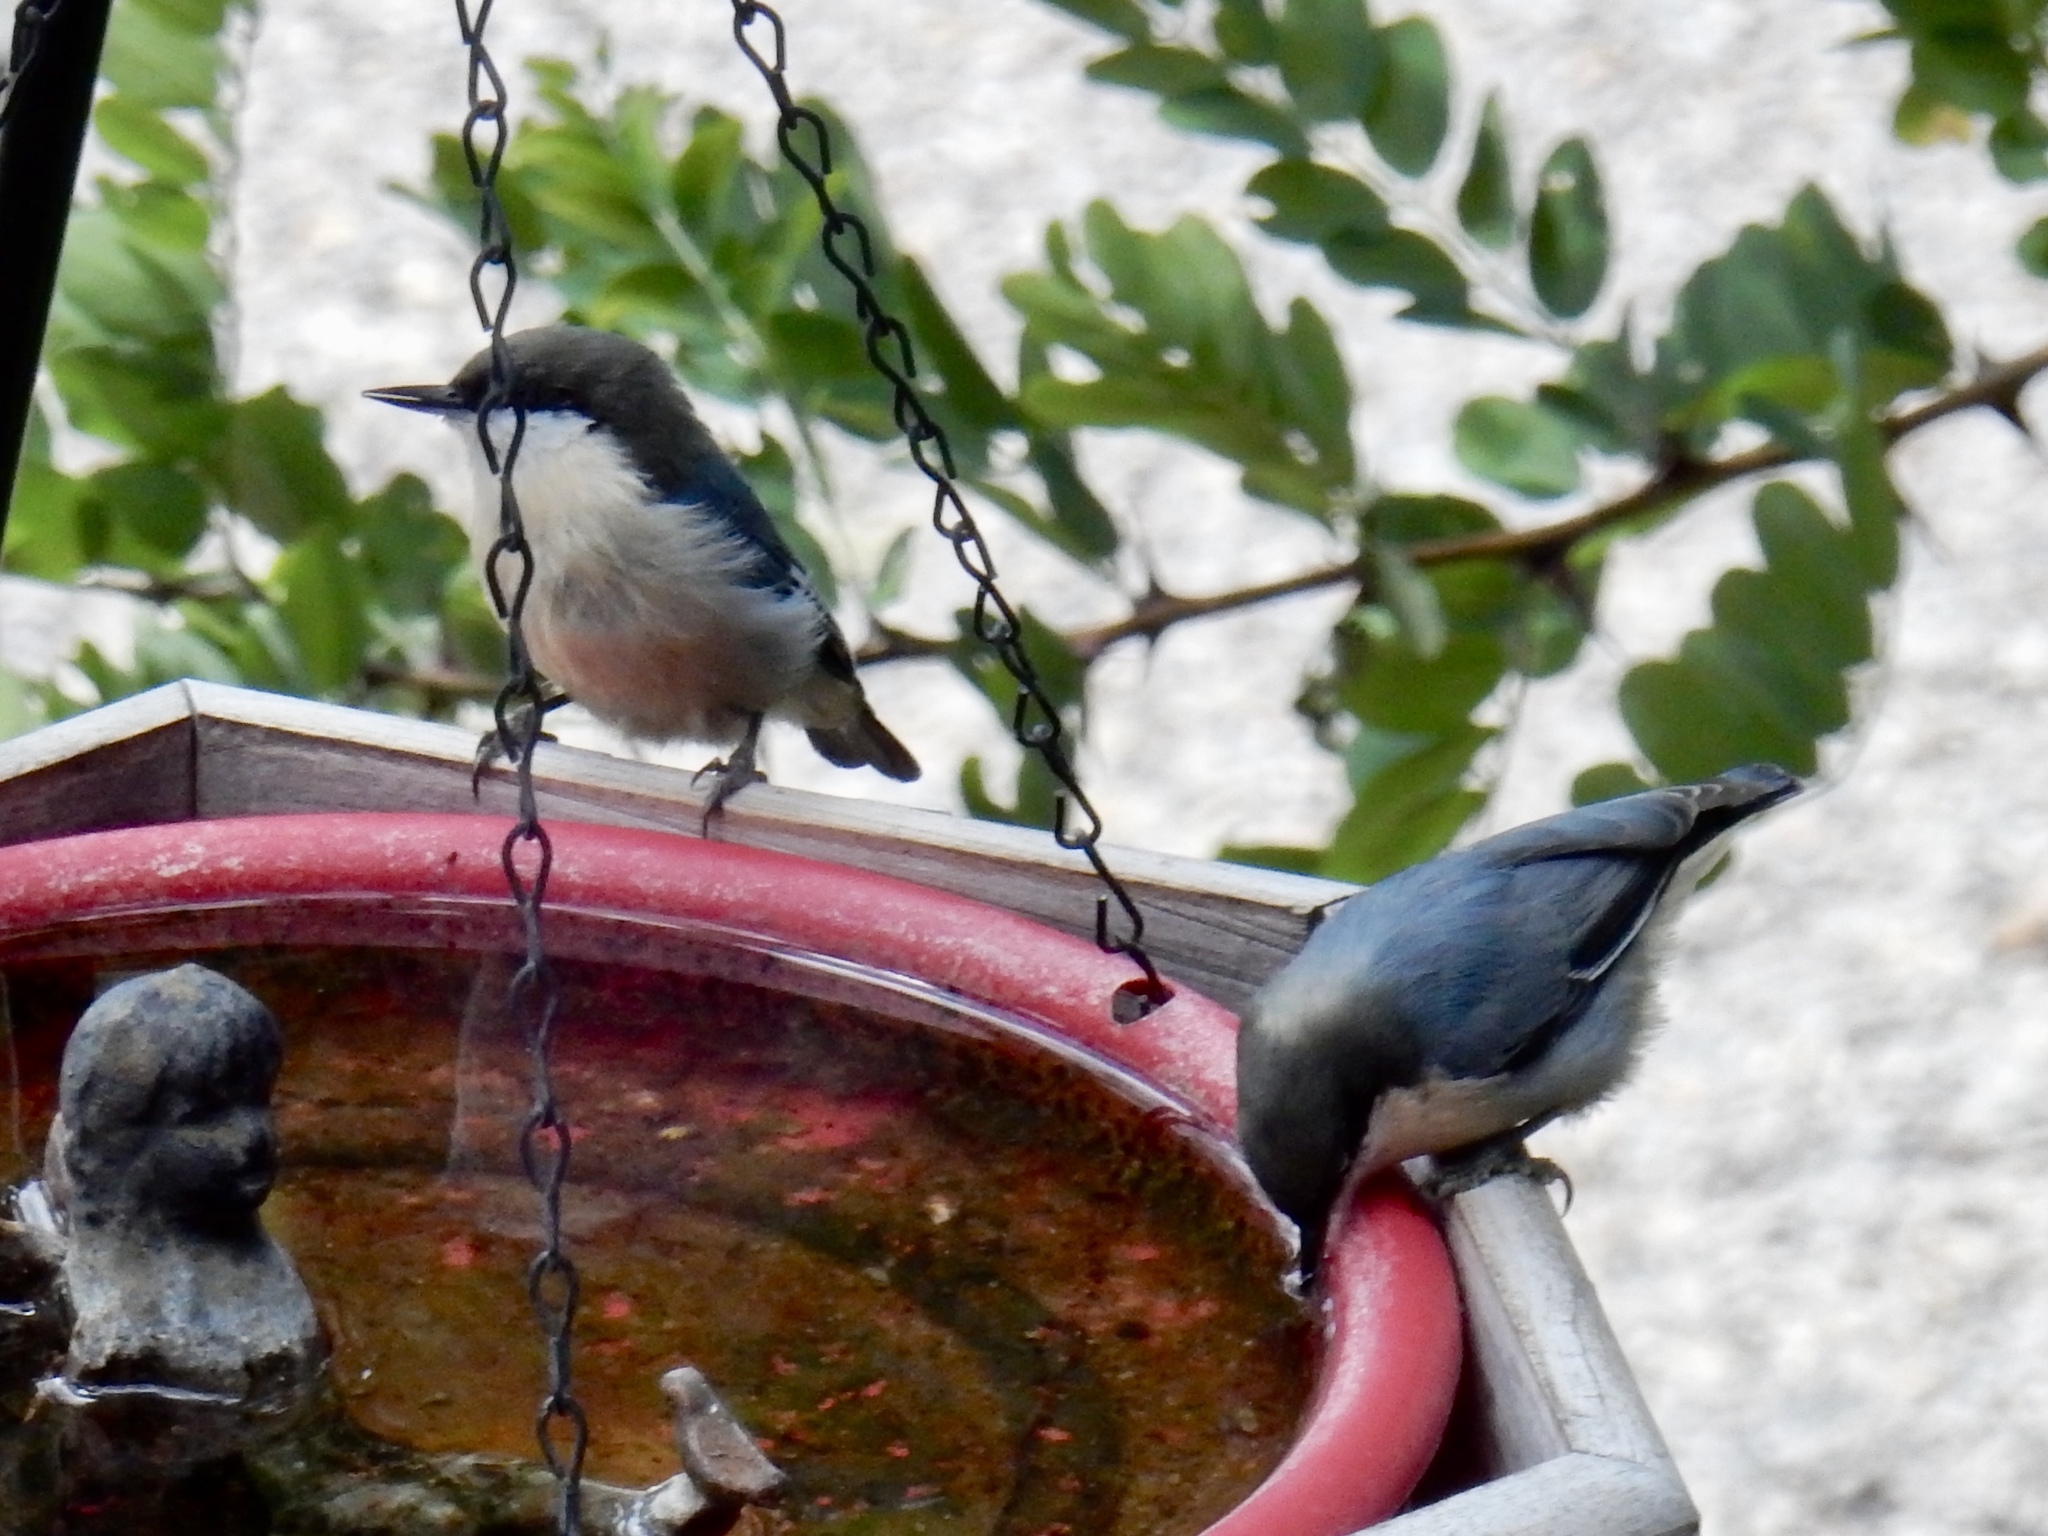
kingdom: Animalia
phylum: Chordata
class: Aves
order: Passeriformes
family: Sittidae
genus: Sitta
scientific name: Sitta pygmaea
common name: Pygmy nuthatch
